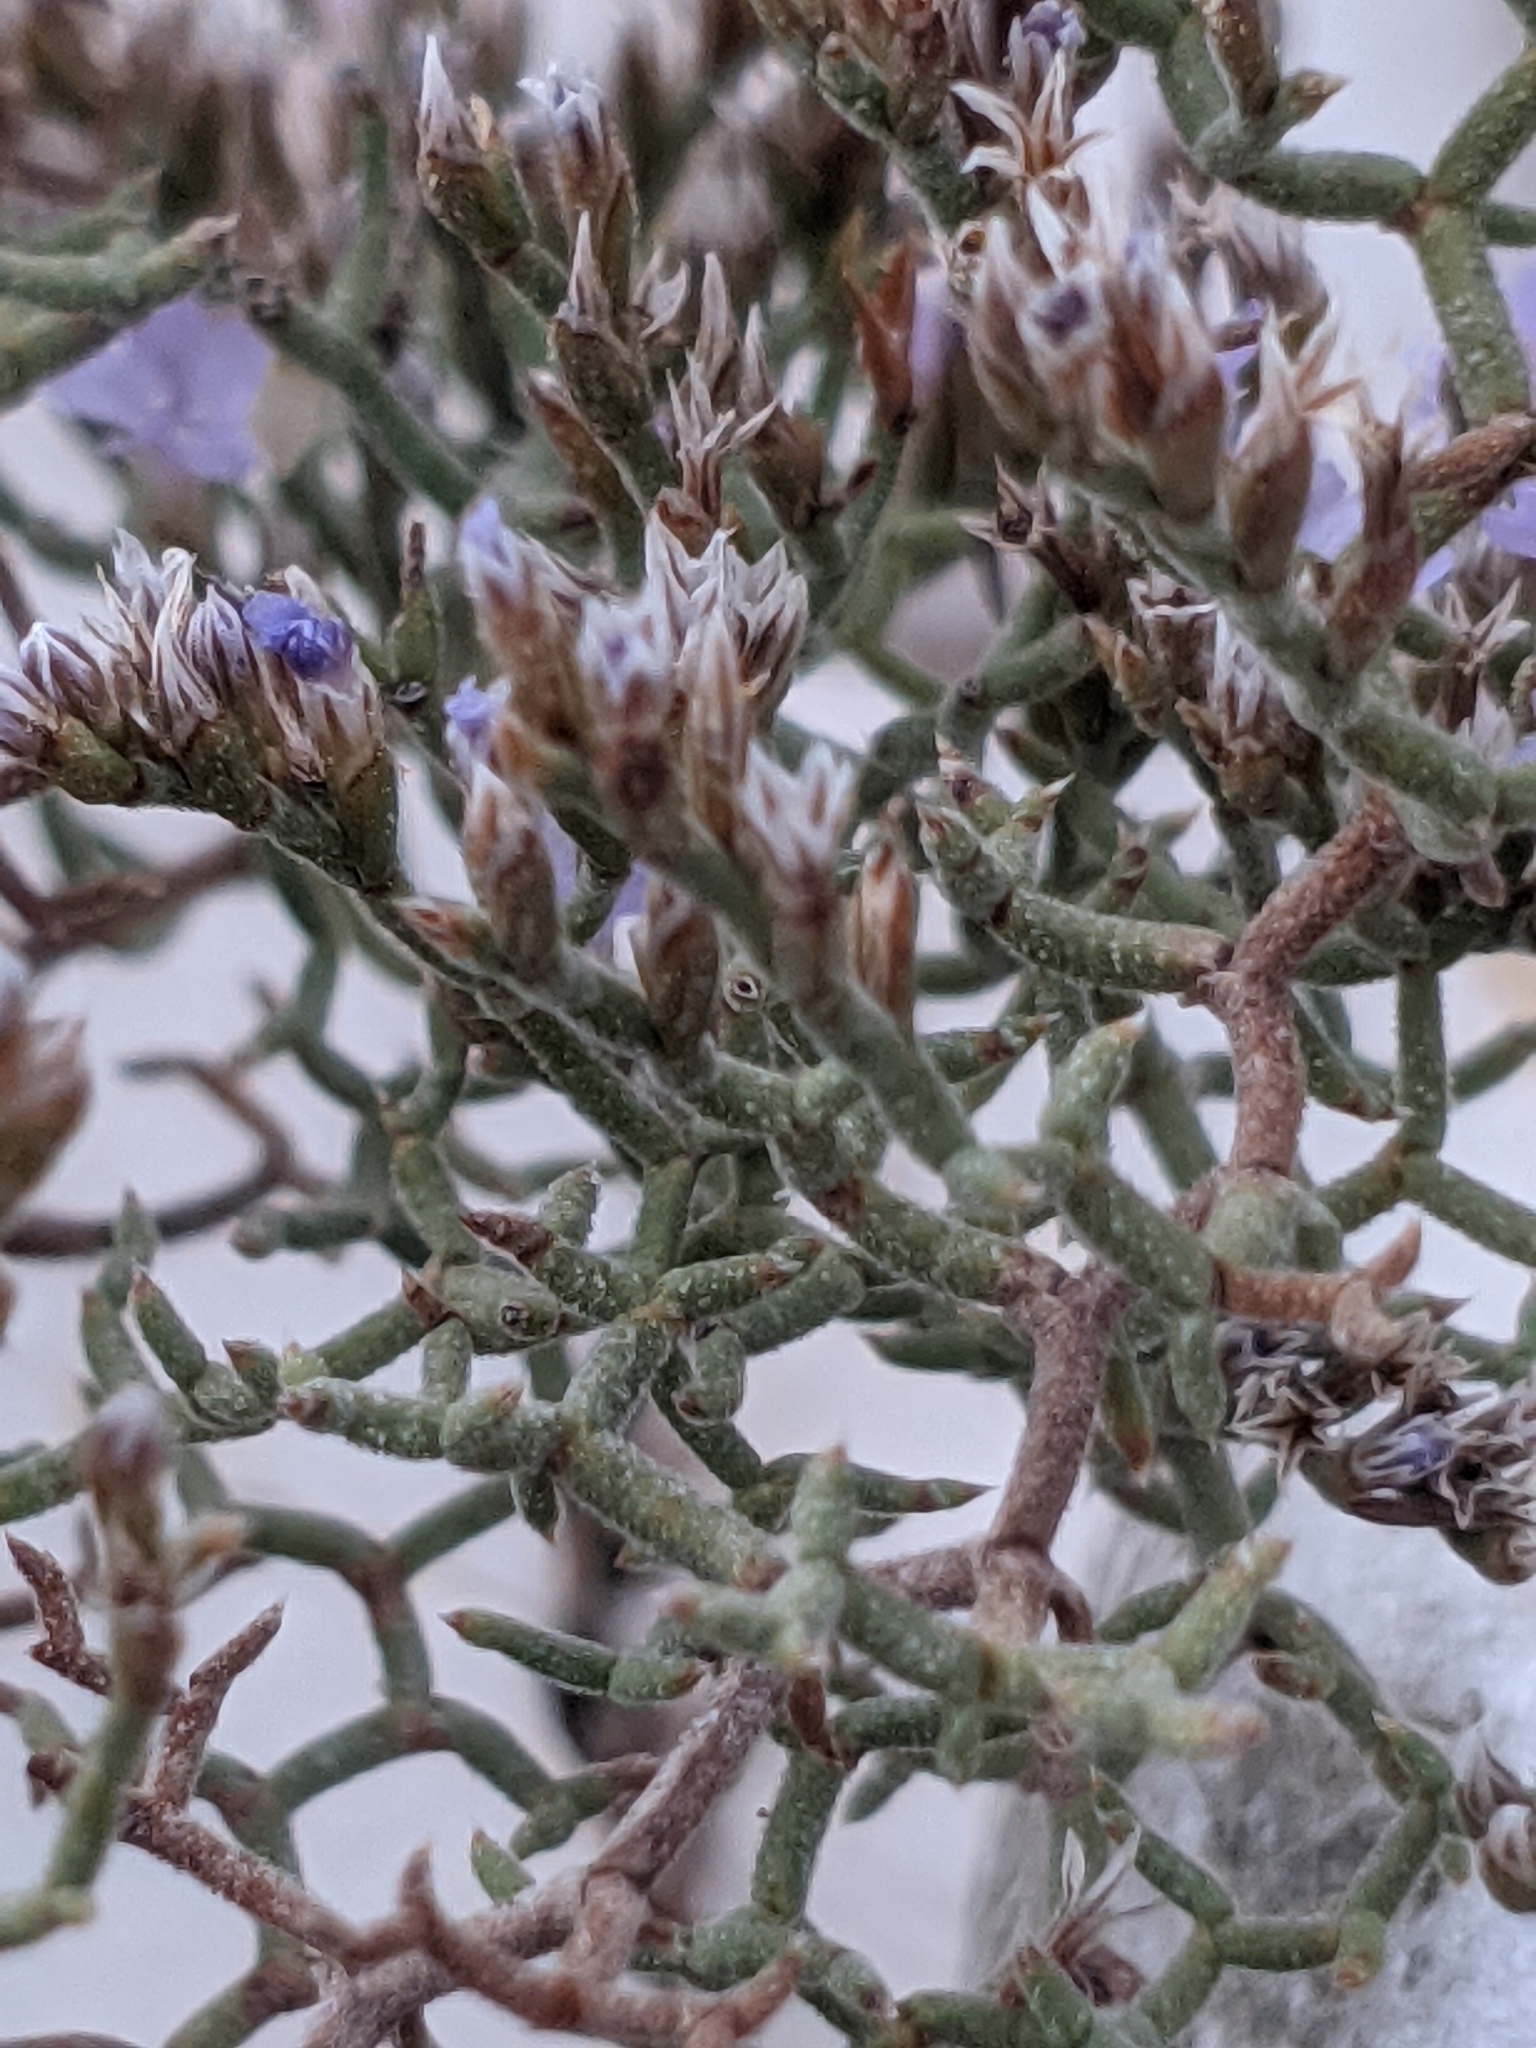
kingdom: Plantae
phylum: Tracheophyta
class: Magnoliopsida
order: Caryophyllales
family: Plumbaginaceae
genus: Limonium
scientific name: Limonium
